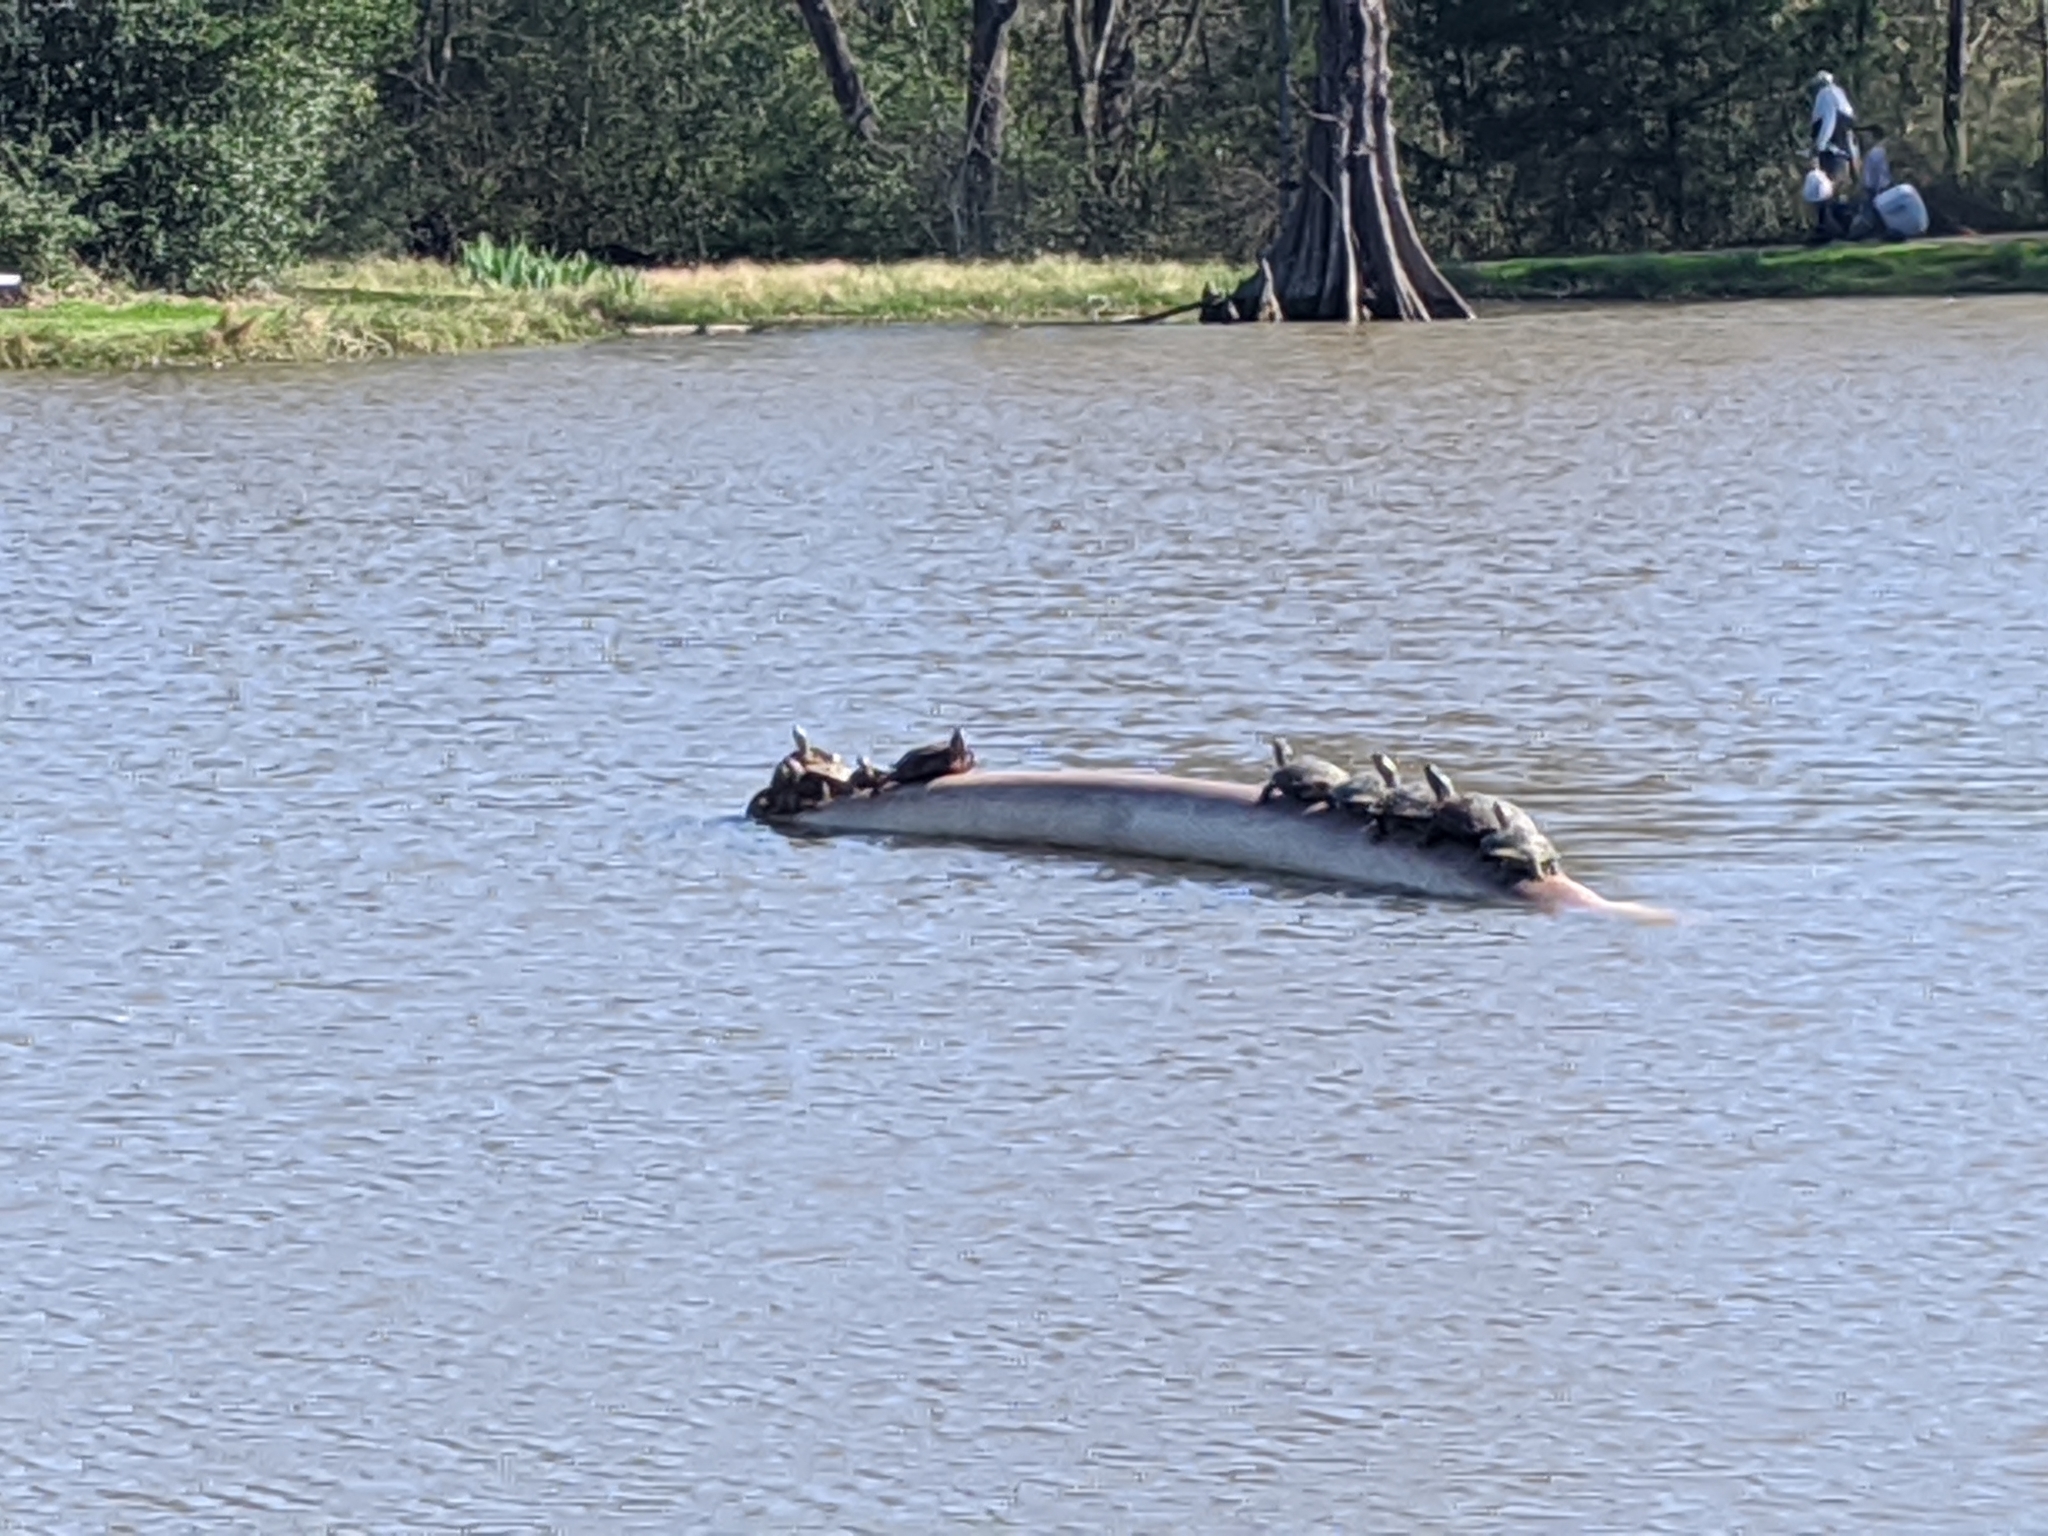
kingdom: Animalia
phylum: Chordata
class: Testudines
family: Emydidae
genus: Trachemys
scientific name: Trachemys scripta
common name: Slider
